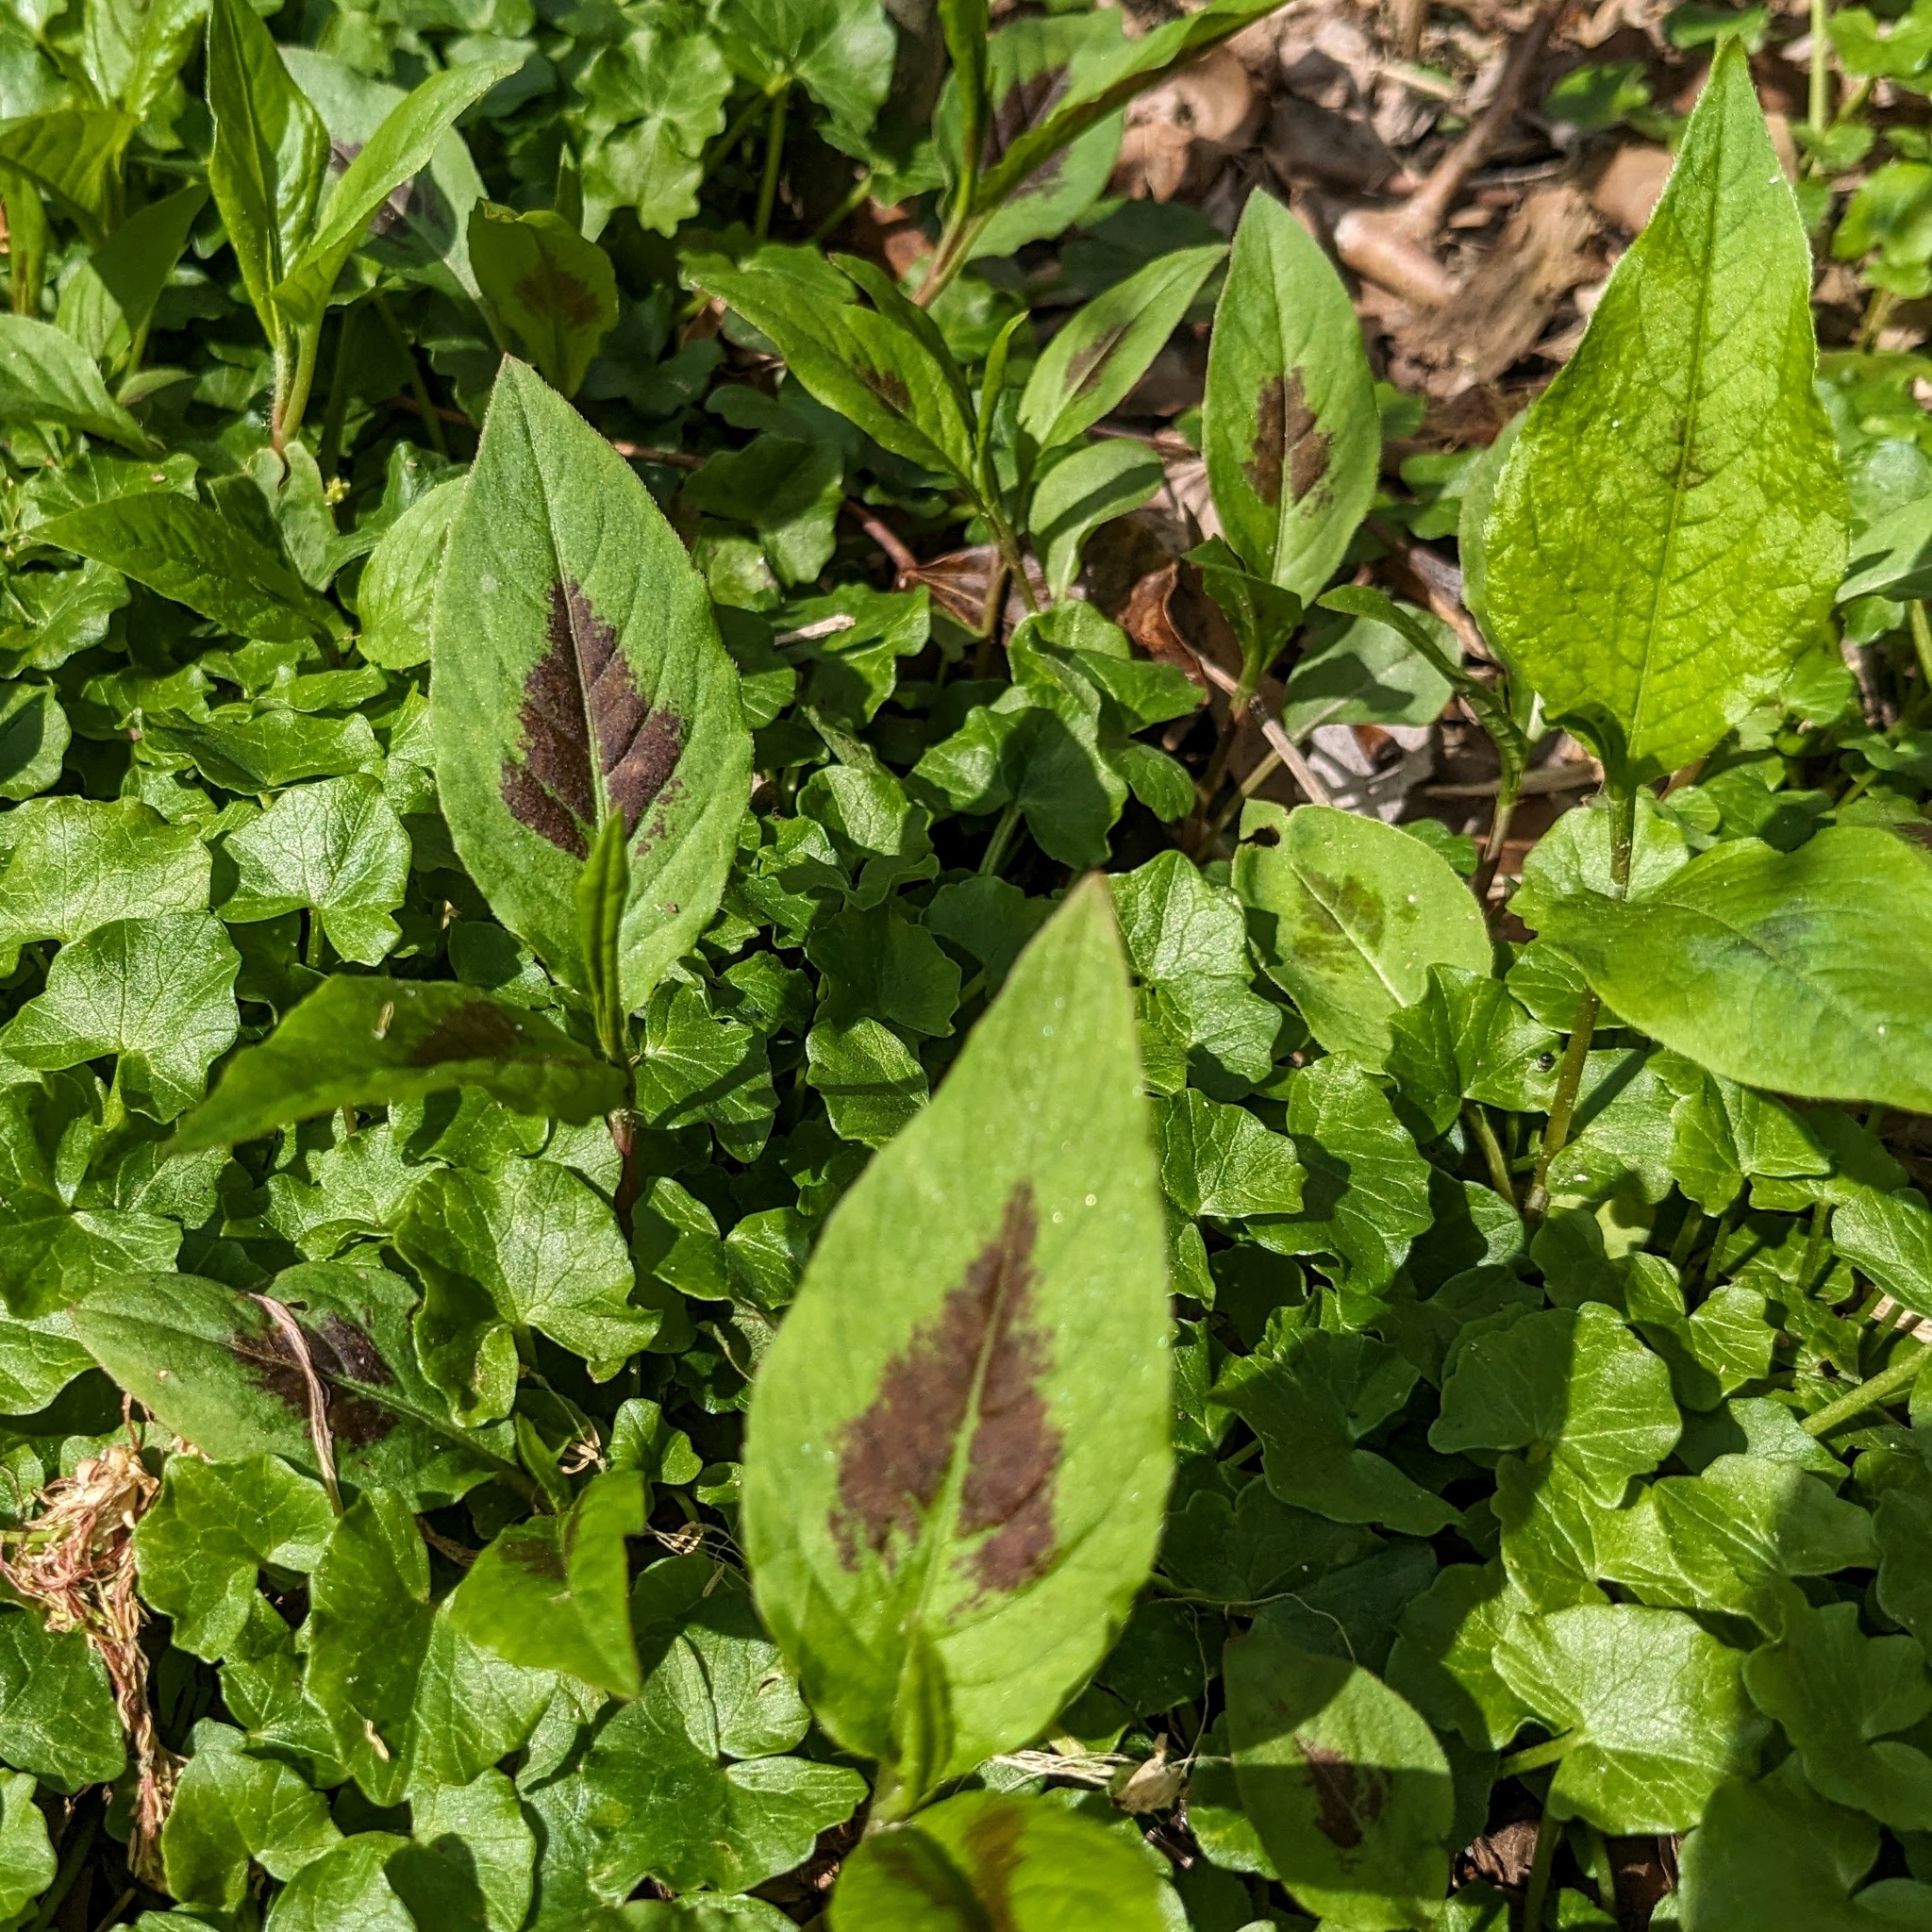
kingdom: Plantae
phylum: Tracheophyta
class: Magnoliopsida
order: Caryophyllales
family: Polygonaceae
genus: Persicaria
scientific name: Persicaria virginiana
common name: Jumpseed
